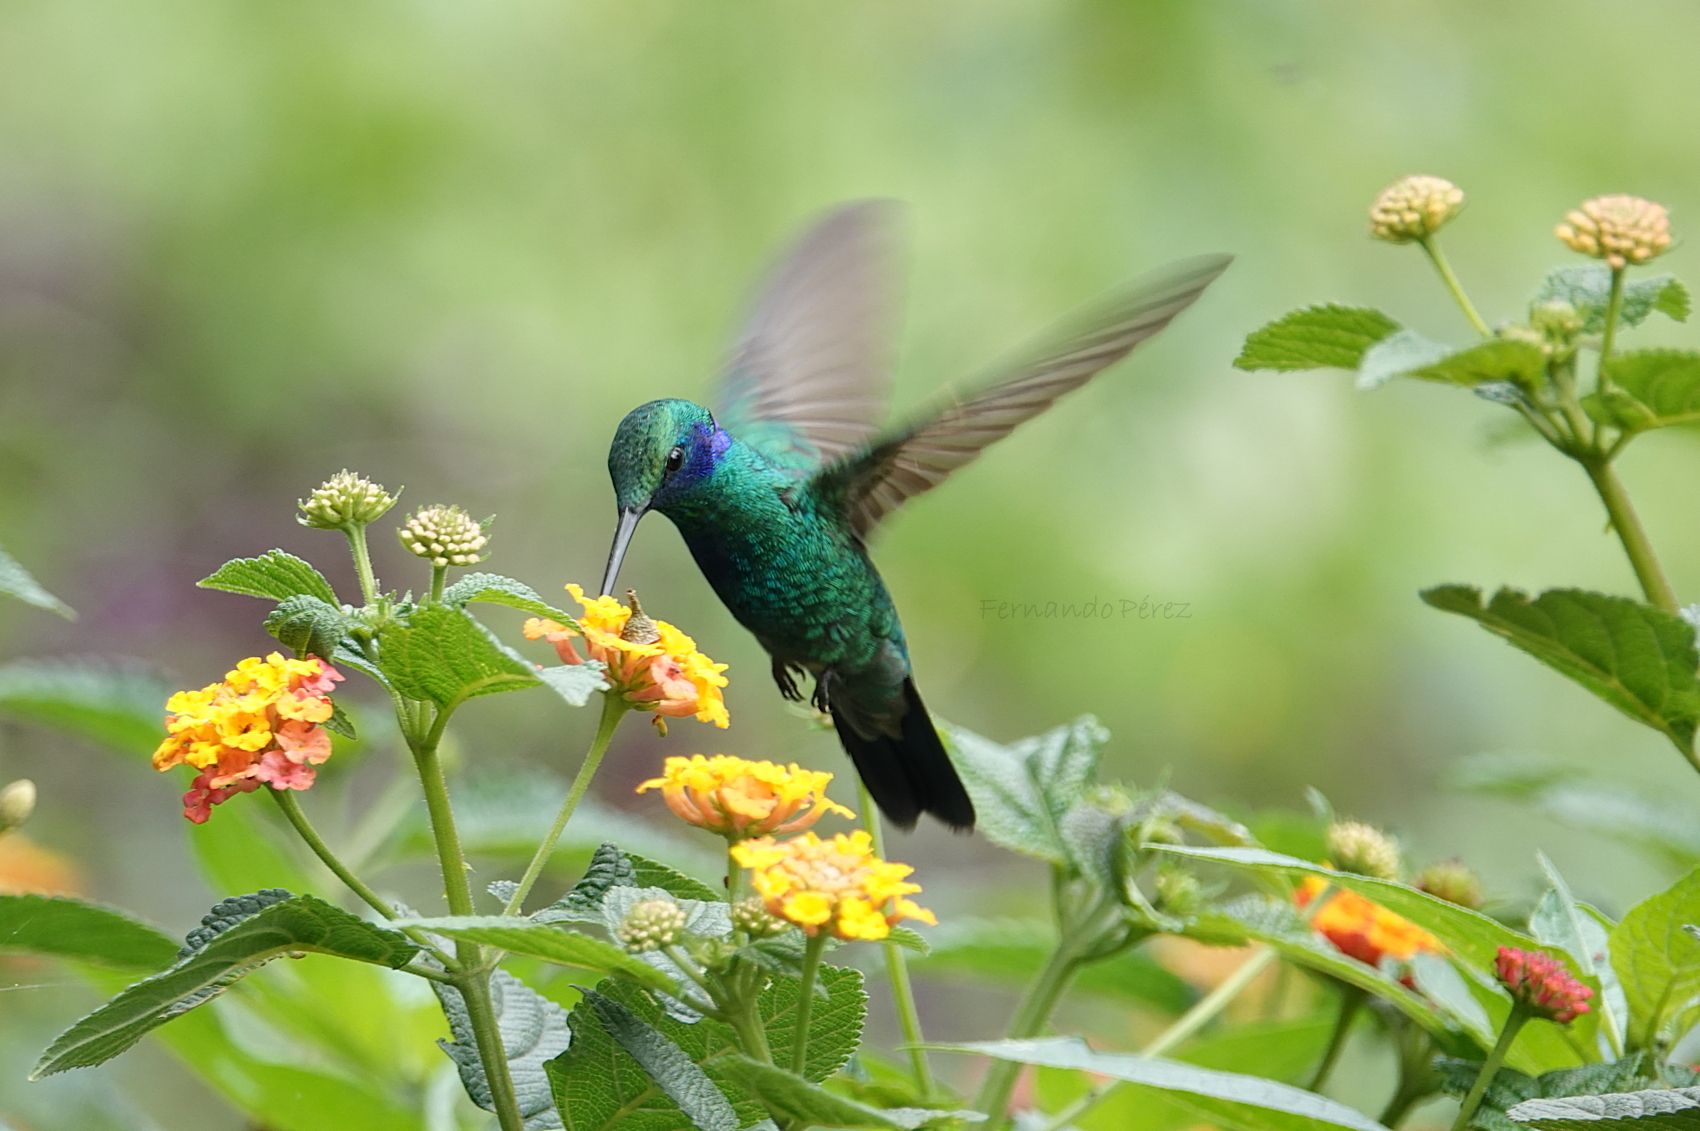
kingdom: Animalia
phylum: Chordata
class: Aves
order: Apodiformes
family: Trochilidae
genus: Colibri
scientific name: Colibri thalassinus
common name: Green violetear
